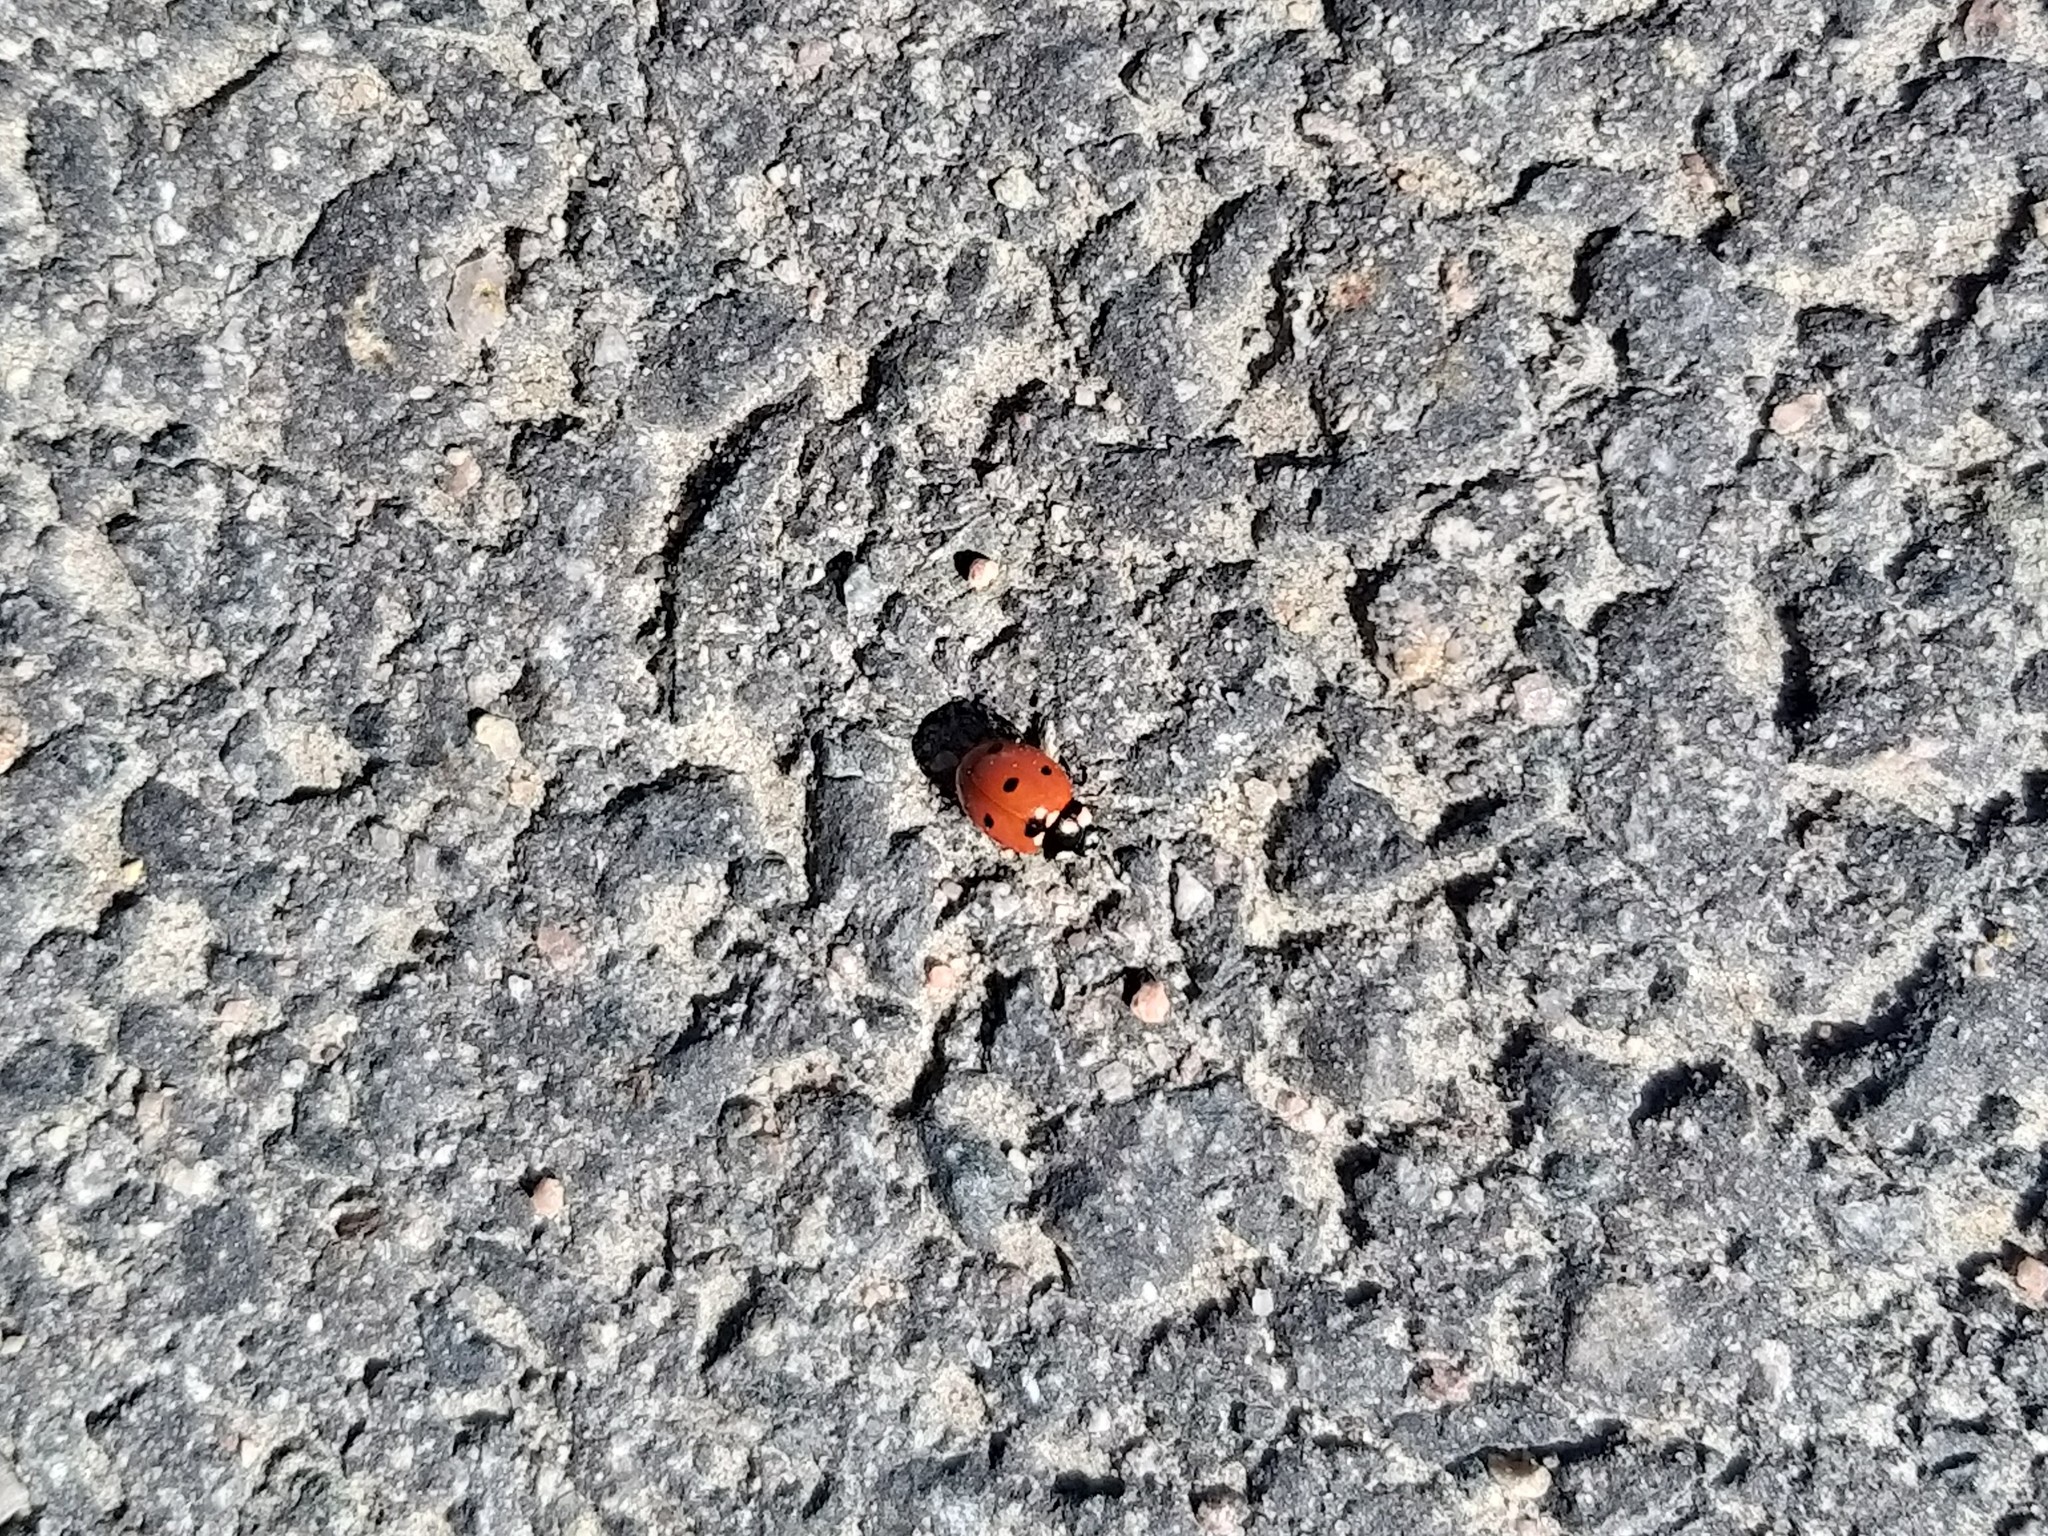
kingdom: Animalia
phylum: Arthropoda
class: Insecta
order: Coleoptera
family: Coccinellidae
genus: Coccinella
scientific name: Coccinella septempunctata
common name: Sevenspotted lady beetle
